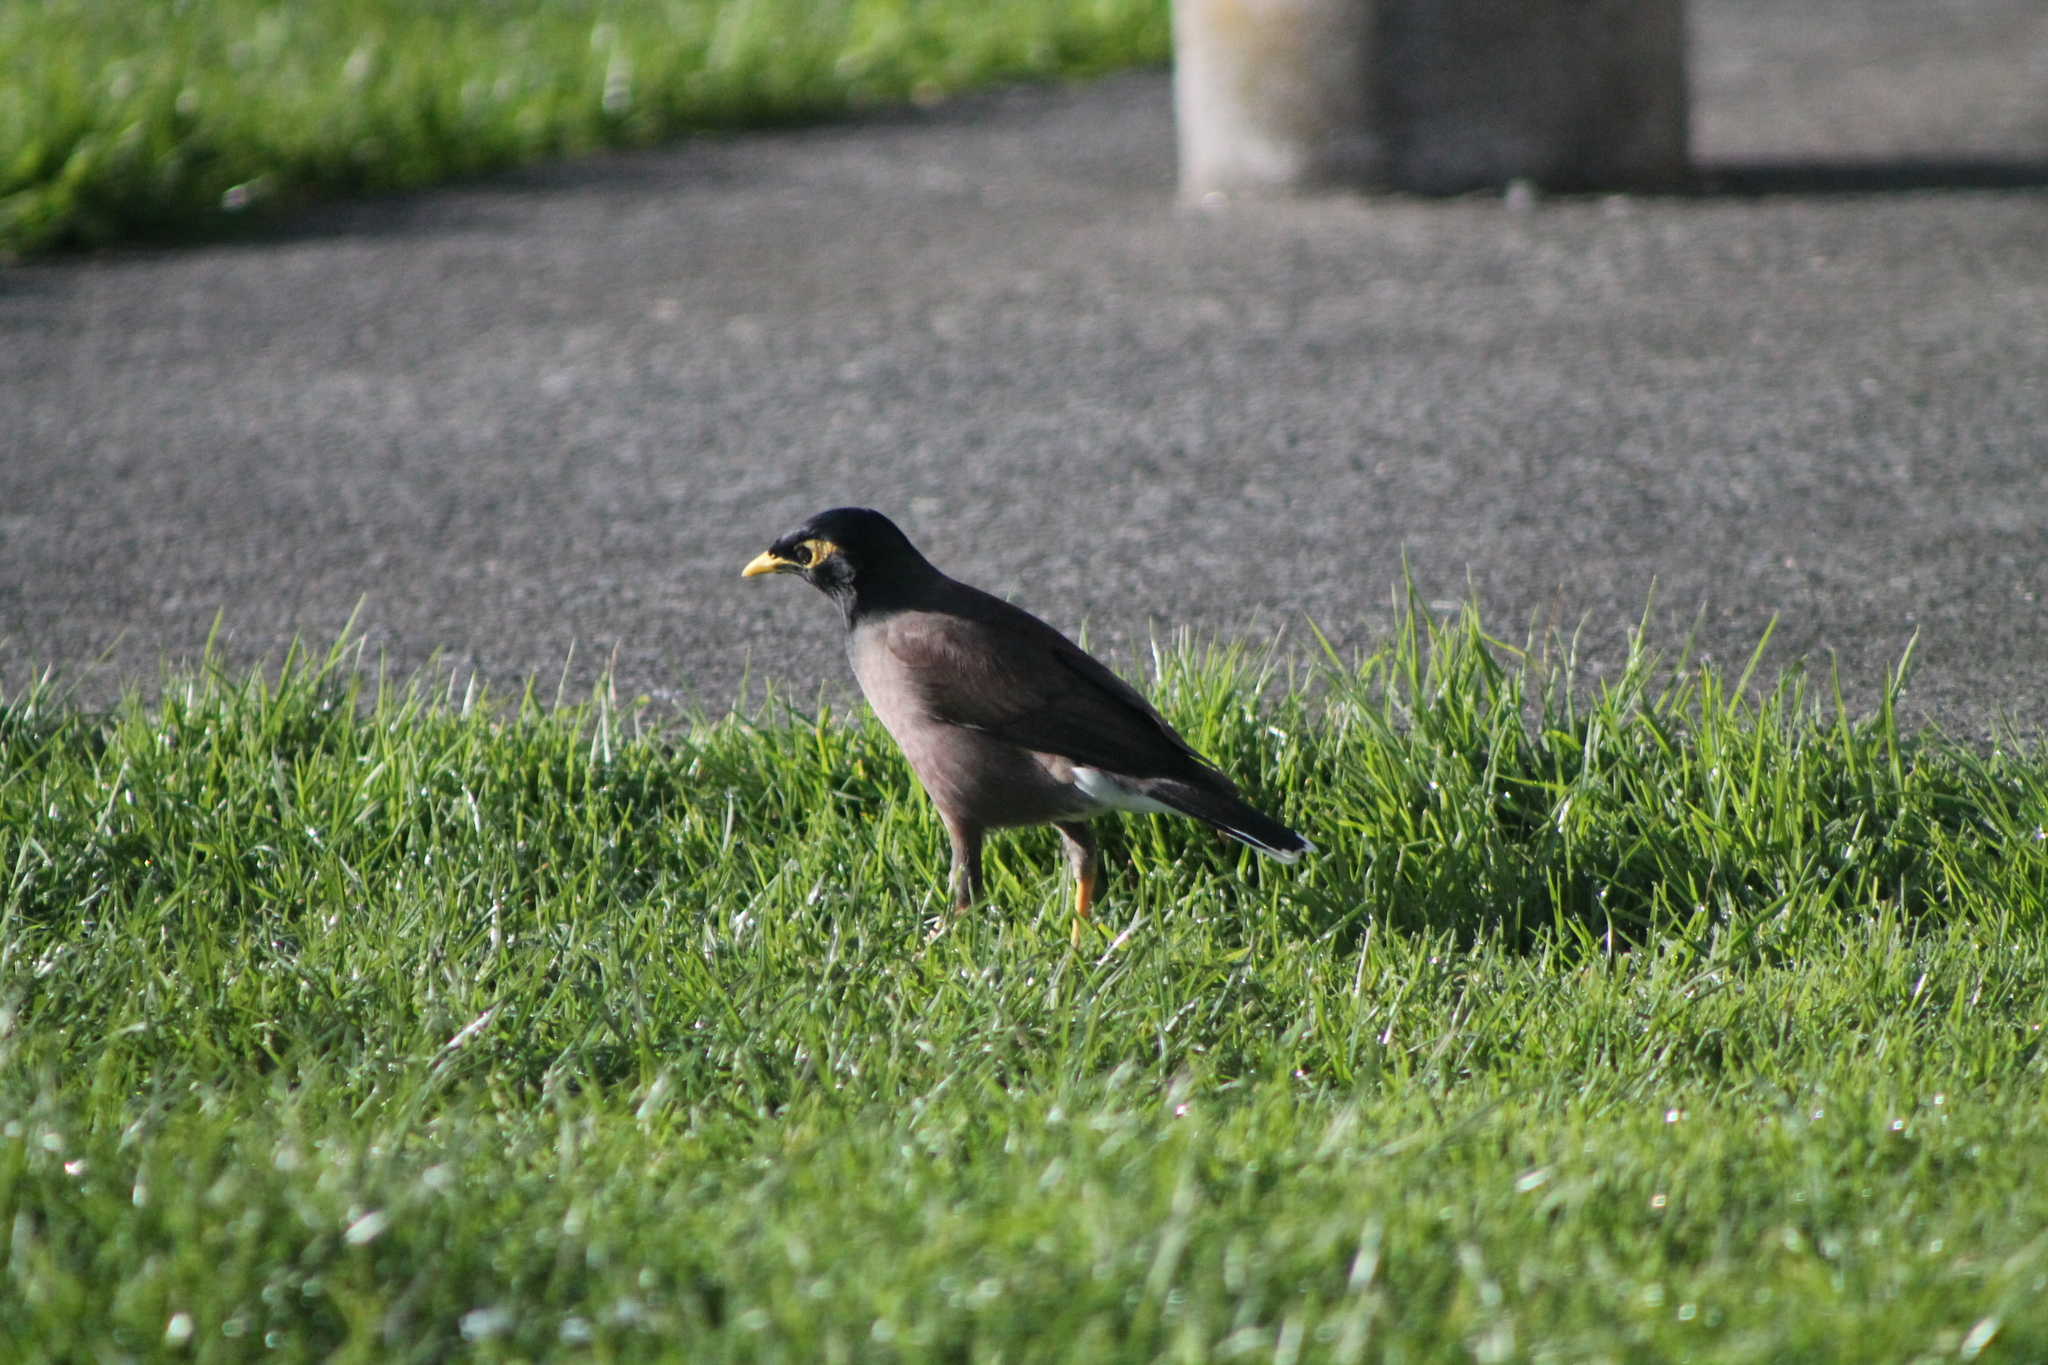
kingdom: Animalia
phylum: Chordata
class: Aves
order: Passeriformes
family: Sturnidae
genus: Acridotheres
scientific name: Acridotheres tristis
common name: Common myna
